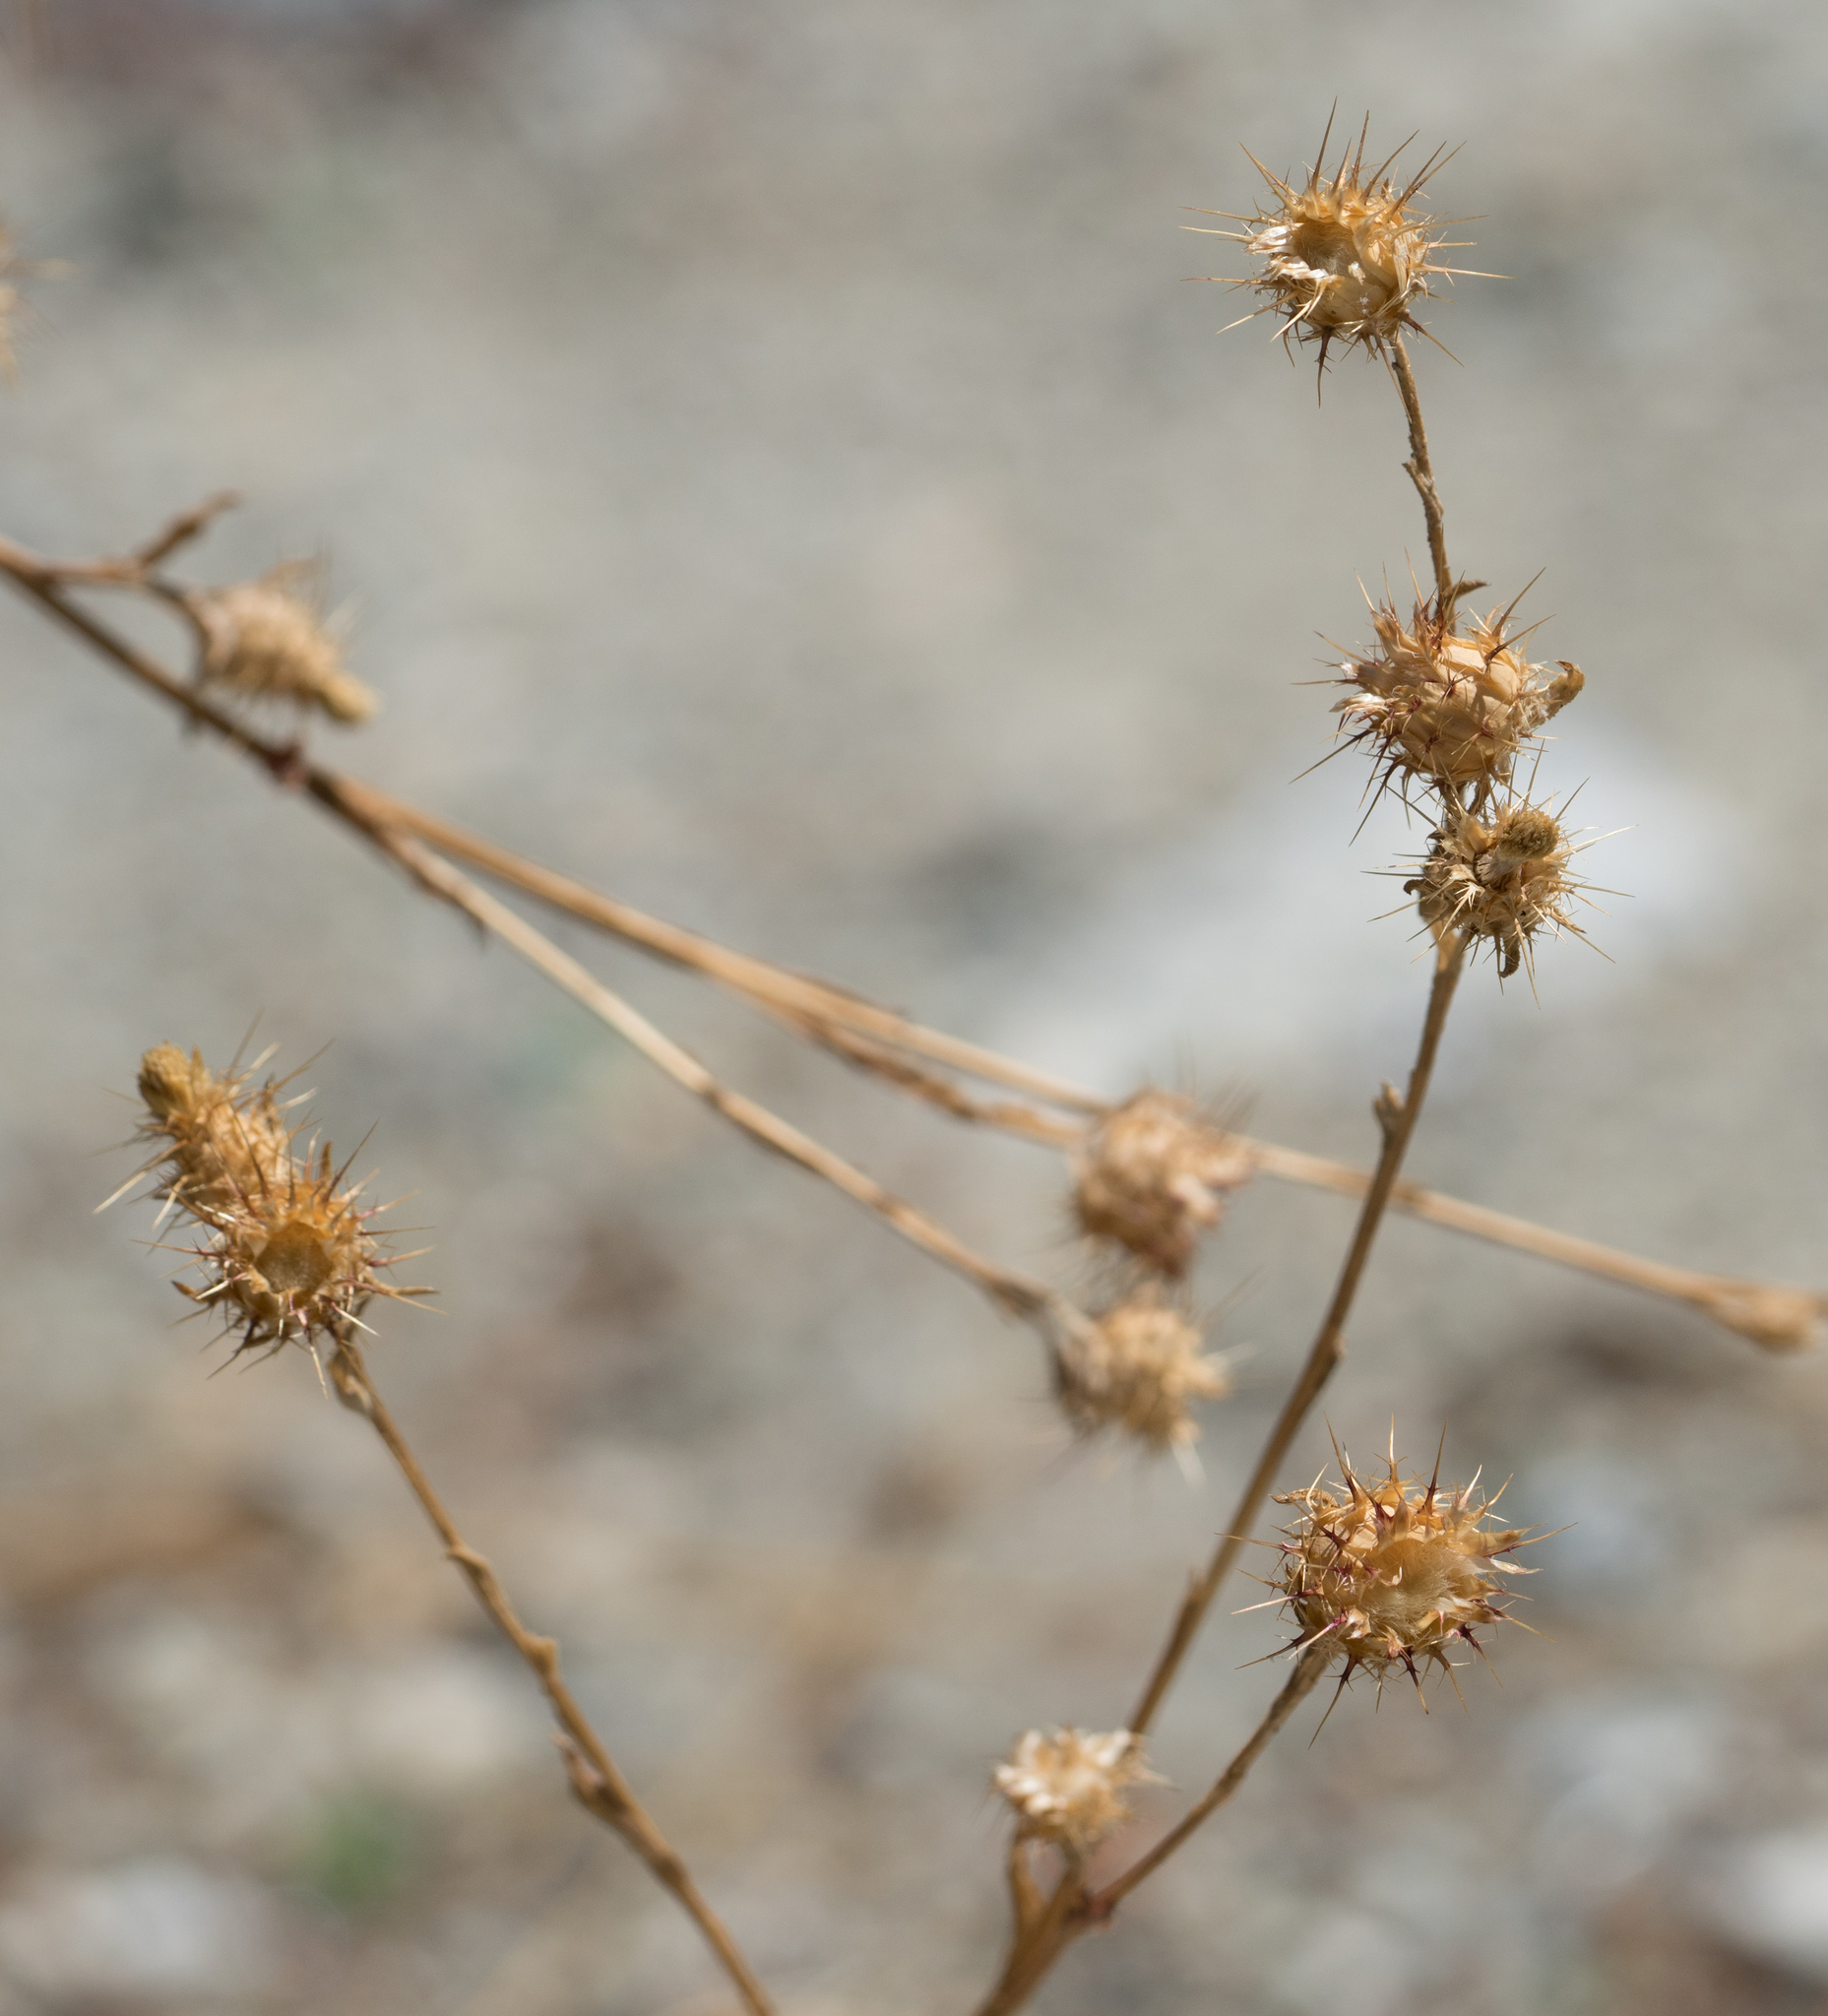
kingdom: Plantae
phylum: Tracheophyta
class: Magnoliopsida
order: Asterales
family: Asteraceae
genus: Centaurea
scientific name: Centaurea melitensis
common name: Maltese star-thistle
